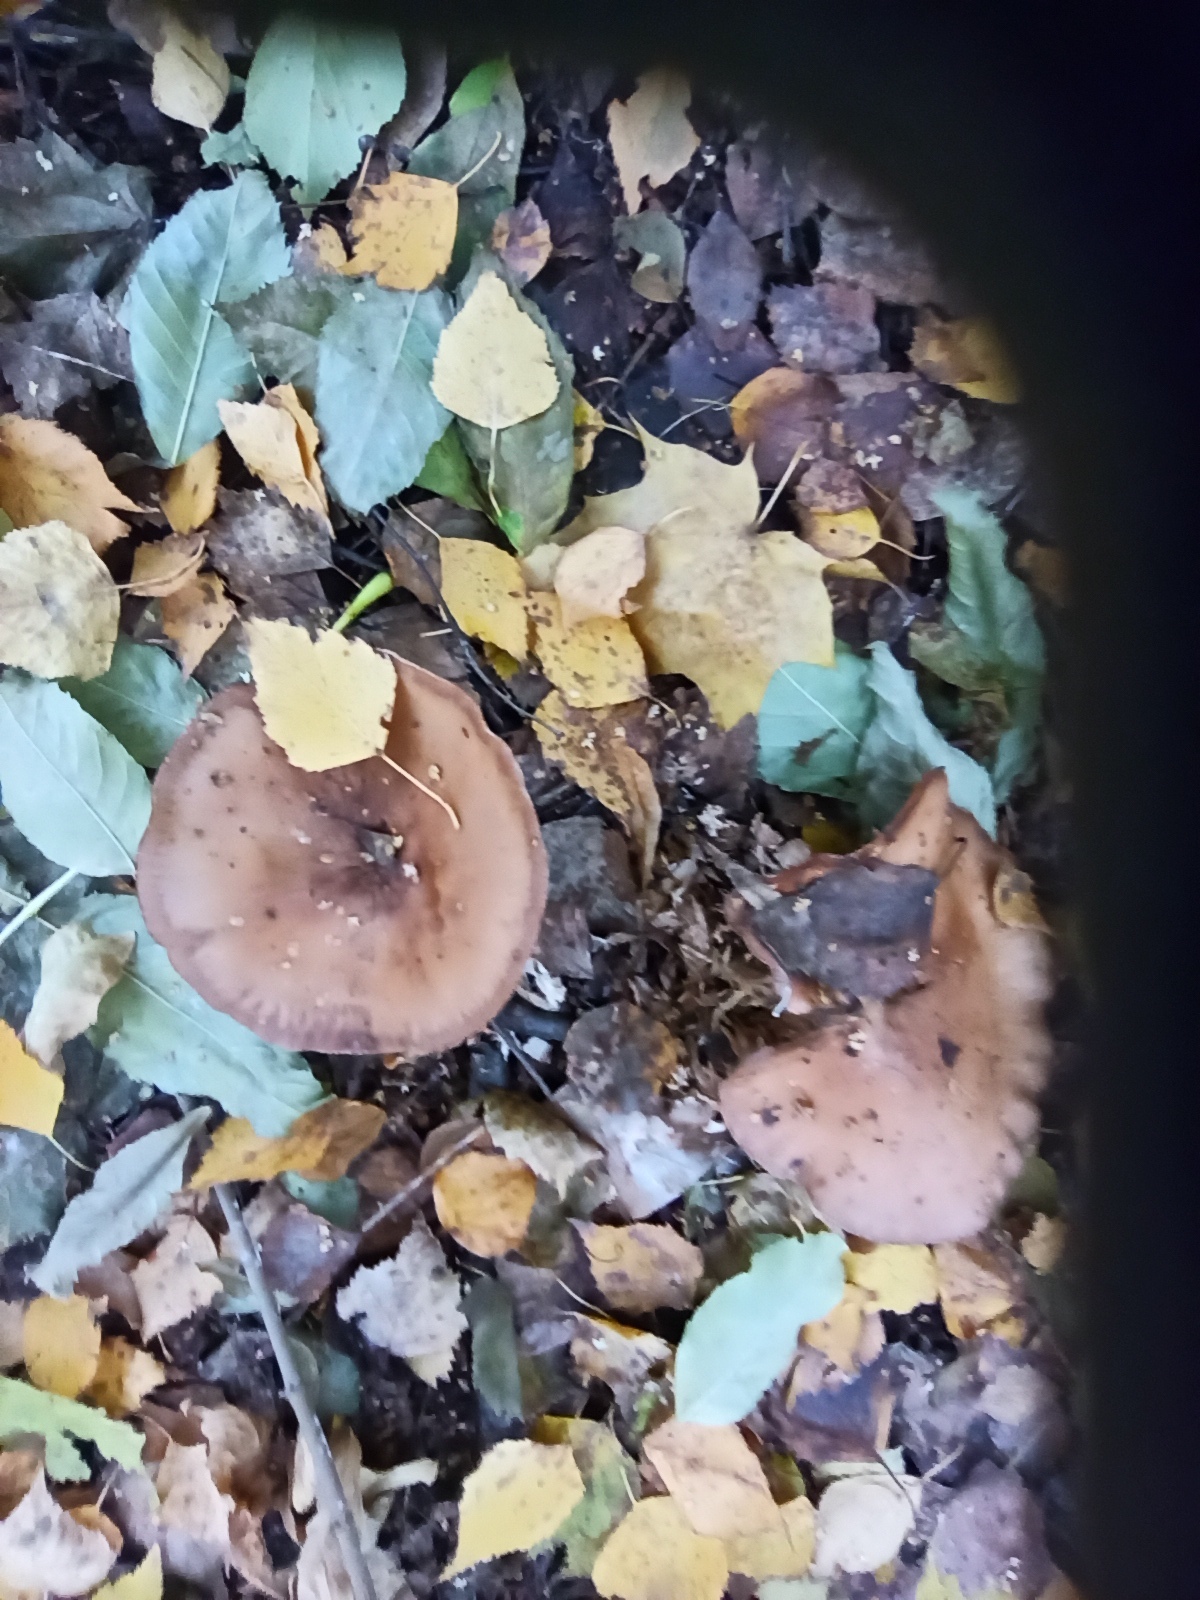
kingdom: Fungi
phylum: Basidiomycota
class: Agaricomycetes
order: Agaricales
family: Tricholomataceae
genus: Collybia
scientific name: Collybia
